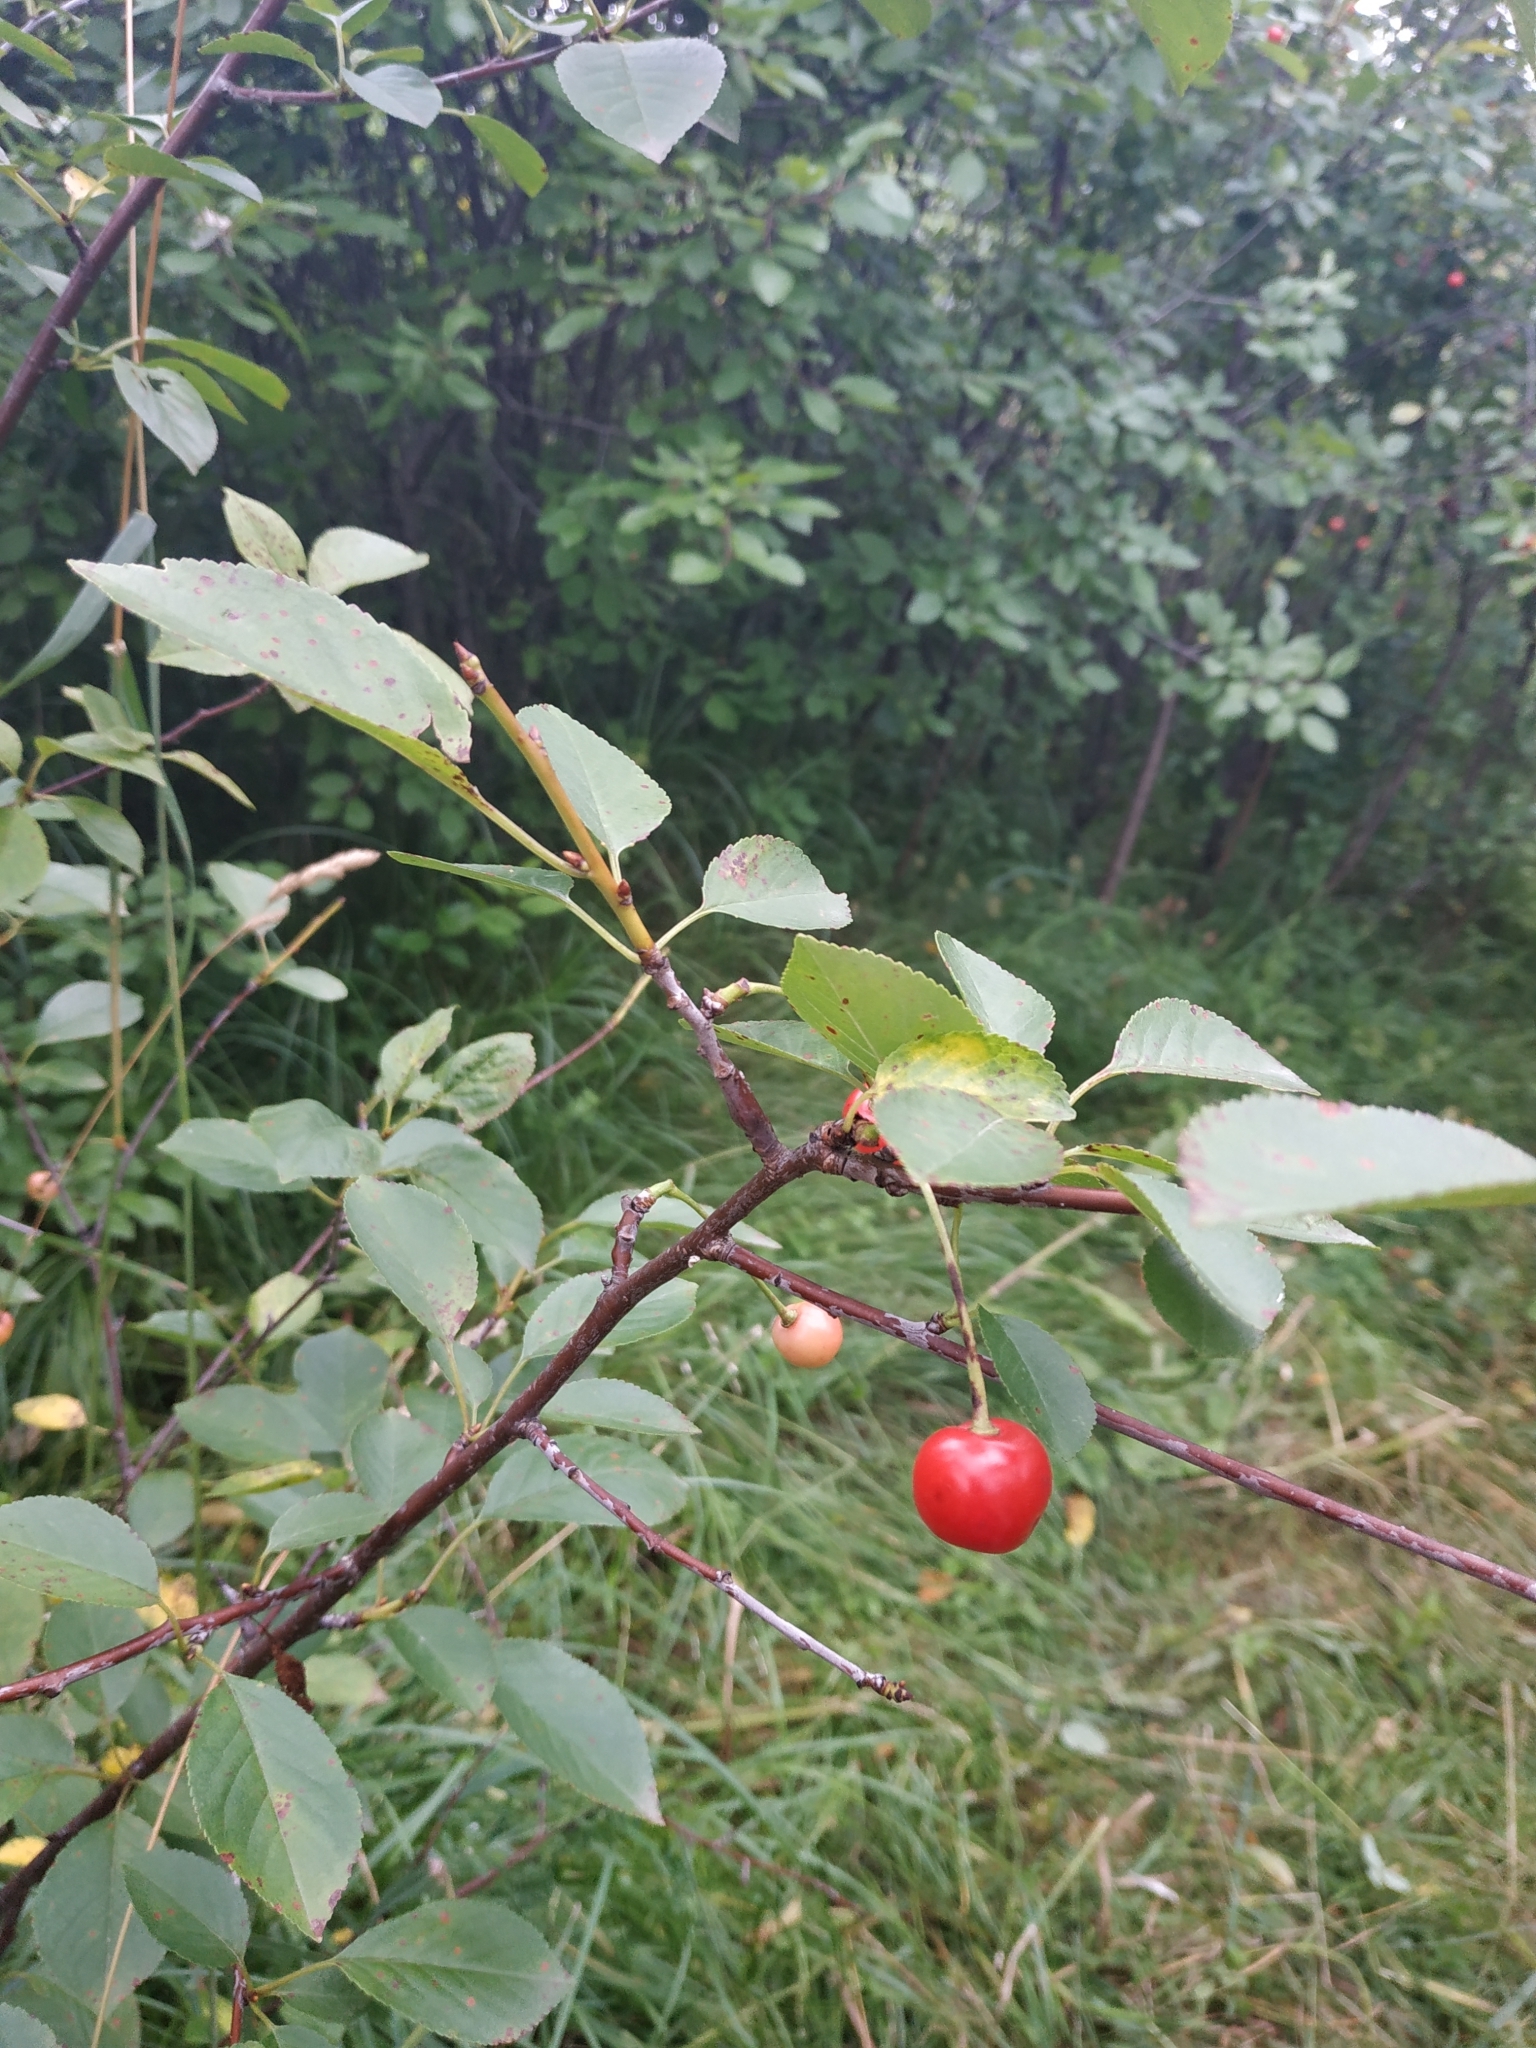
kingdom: Plantae
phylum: Tracheophyta
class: Magnoliopsida
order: Rosales
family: Rosaceae
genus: Prunus
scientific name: Prunus cerasus
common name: Morello cherry
